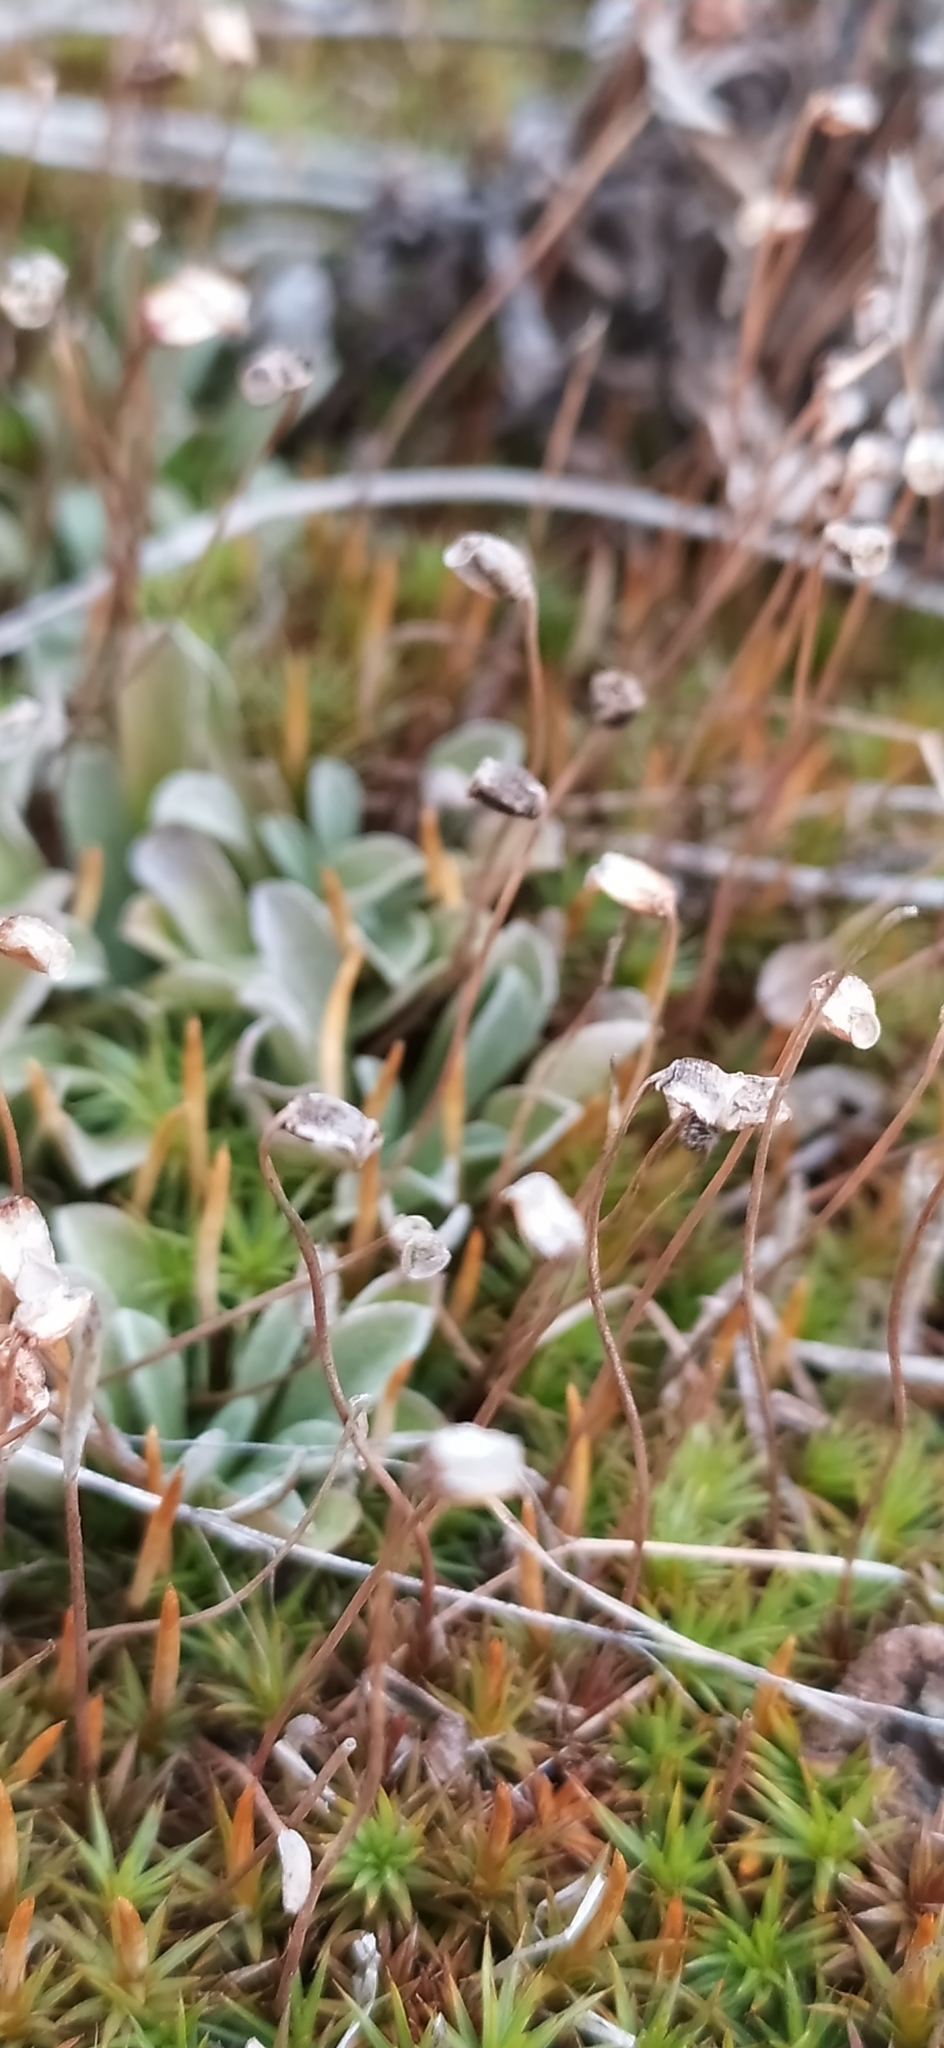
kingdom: Plantae
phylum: Bryophyta
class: Polytrichopsida
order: Polytrichales
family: Polytrichaceae
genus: Polytrichum
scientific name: Polytrichum juniperinum
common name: Juniper haircap moss
